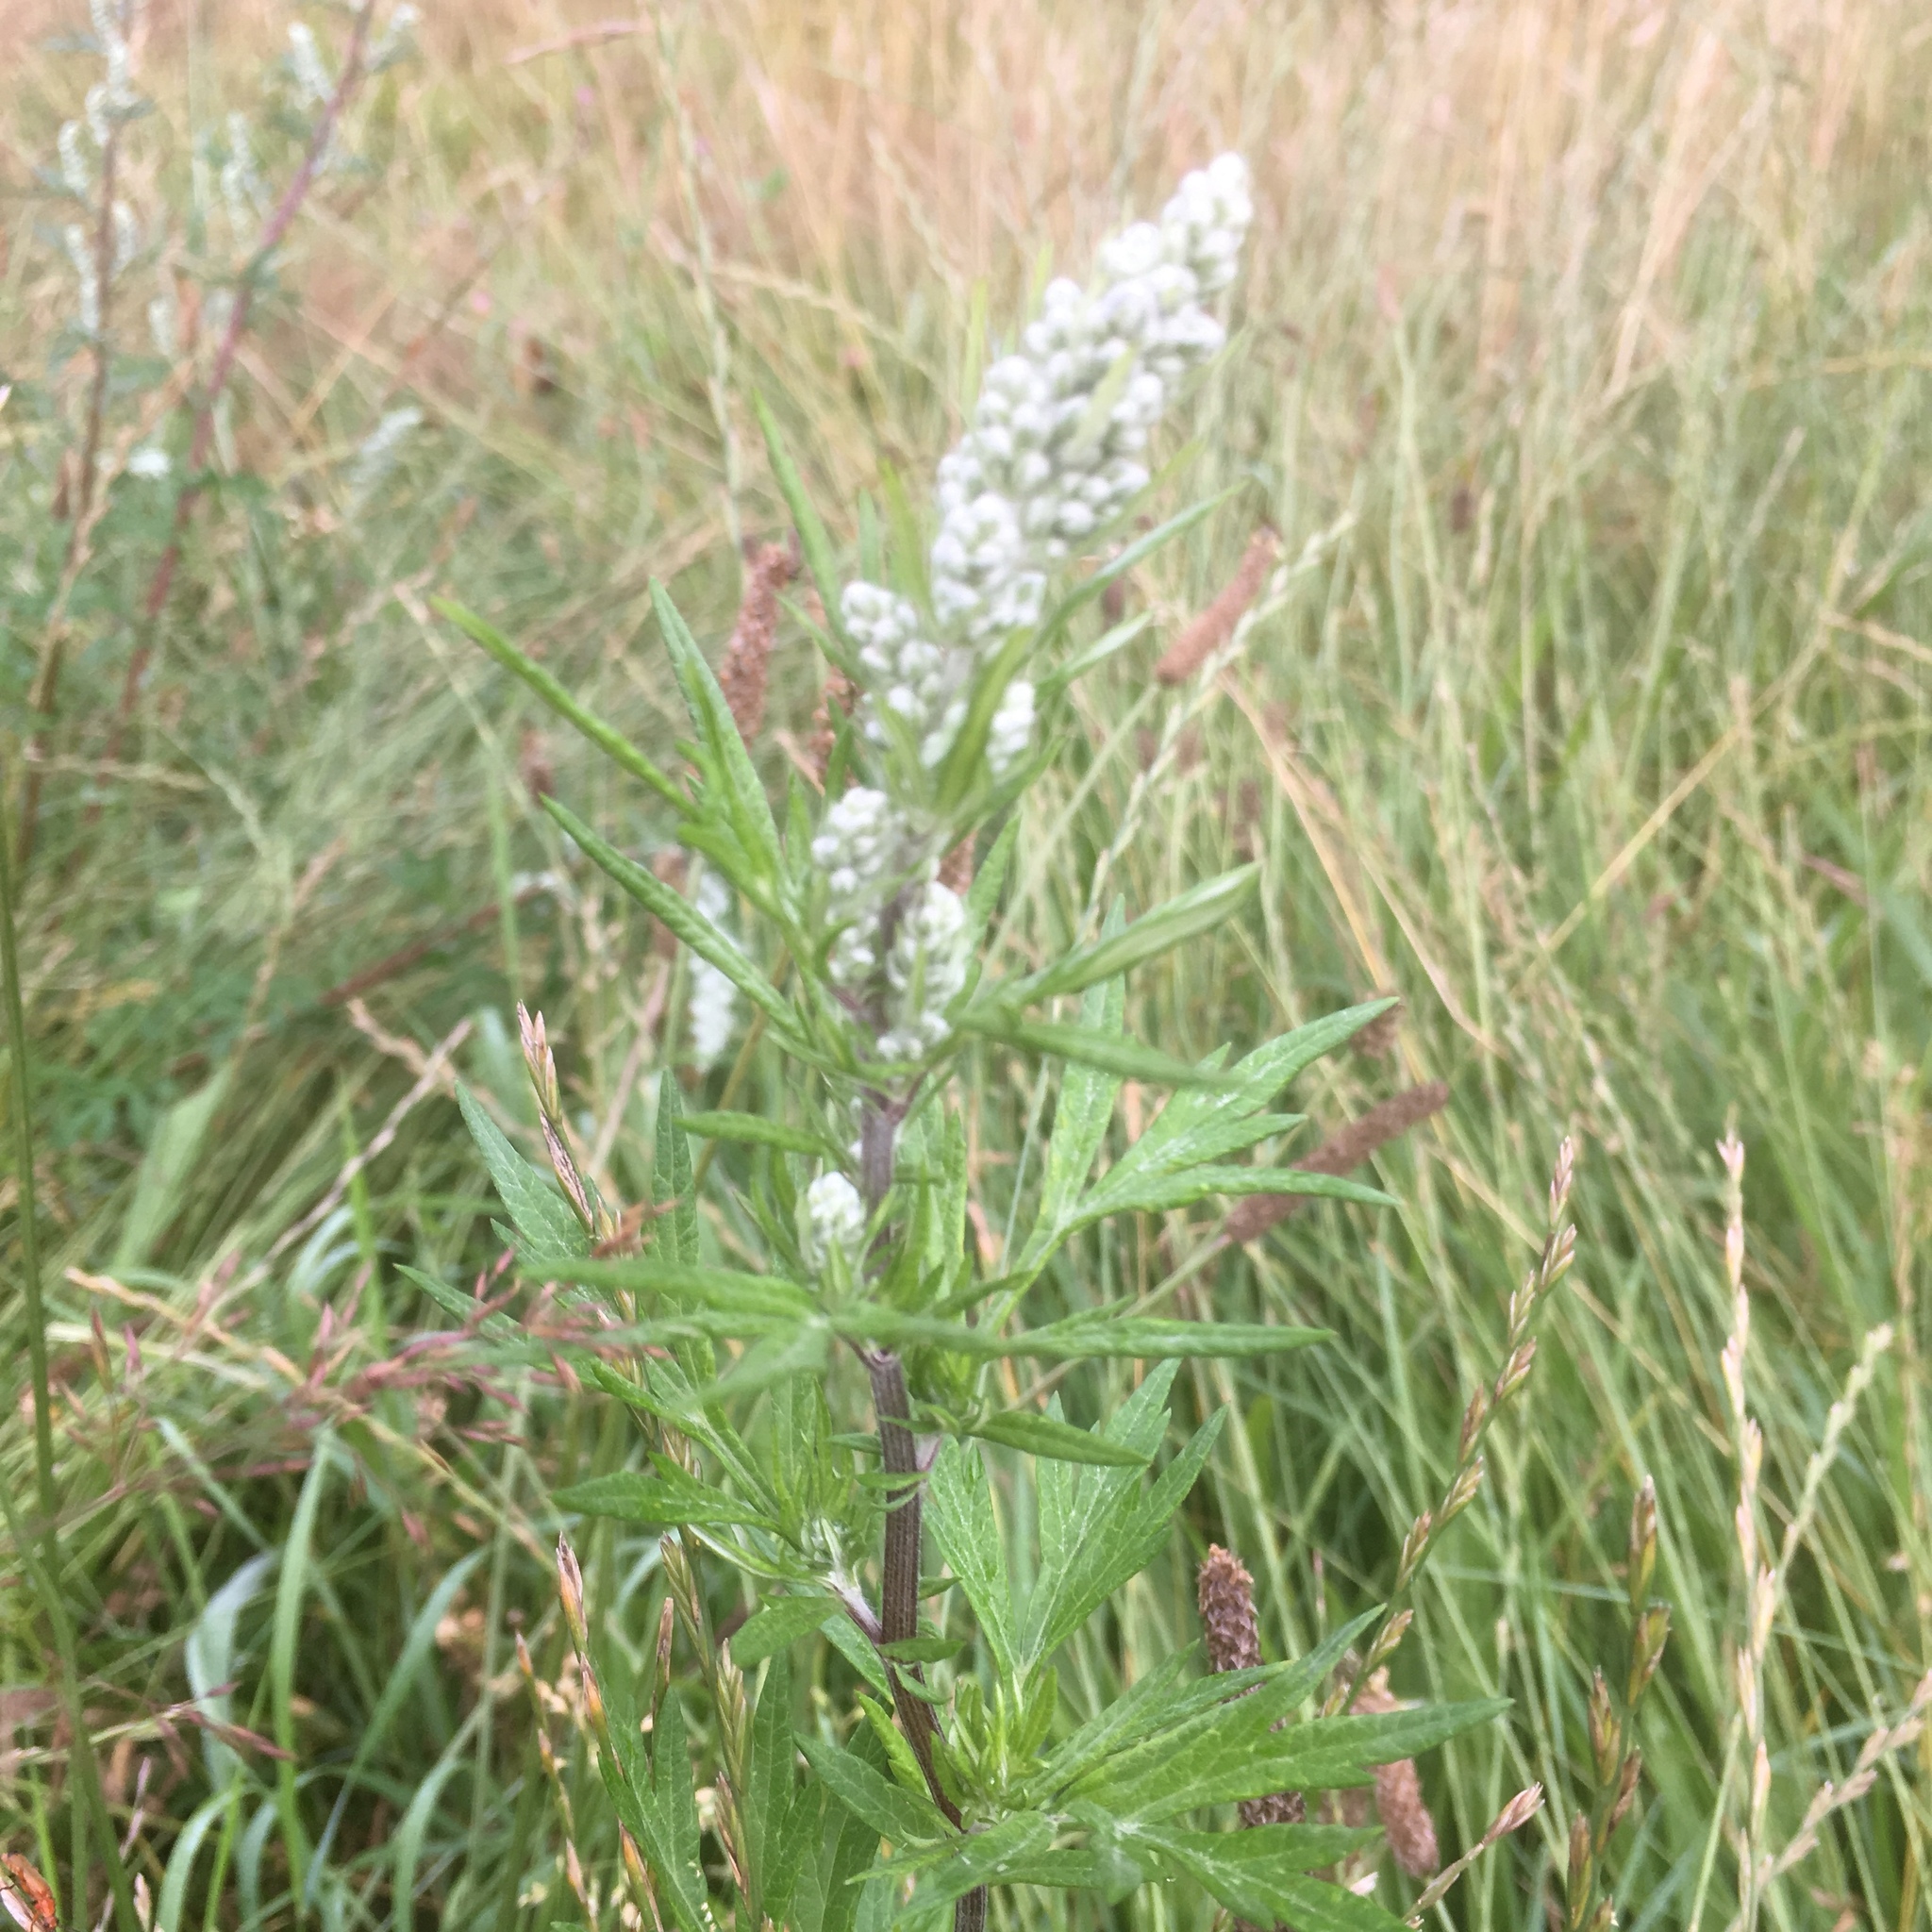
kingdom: Plantae
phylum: Tracheophyta
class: Magnoliopsida
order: Asterales
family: Asteraceae
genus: Artemisia
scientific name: Artemisia vulgaris
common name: Mugwort
